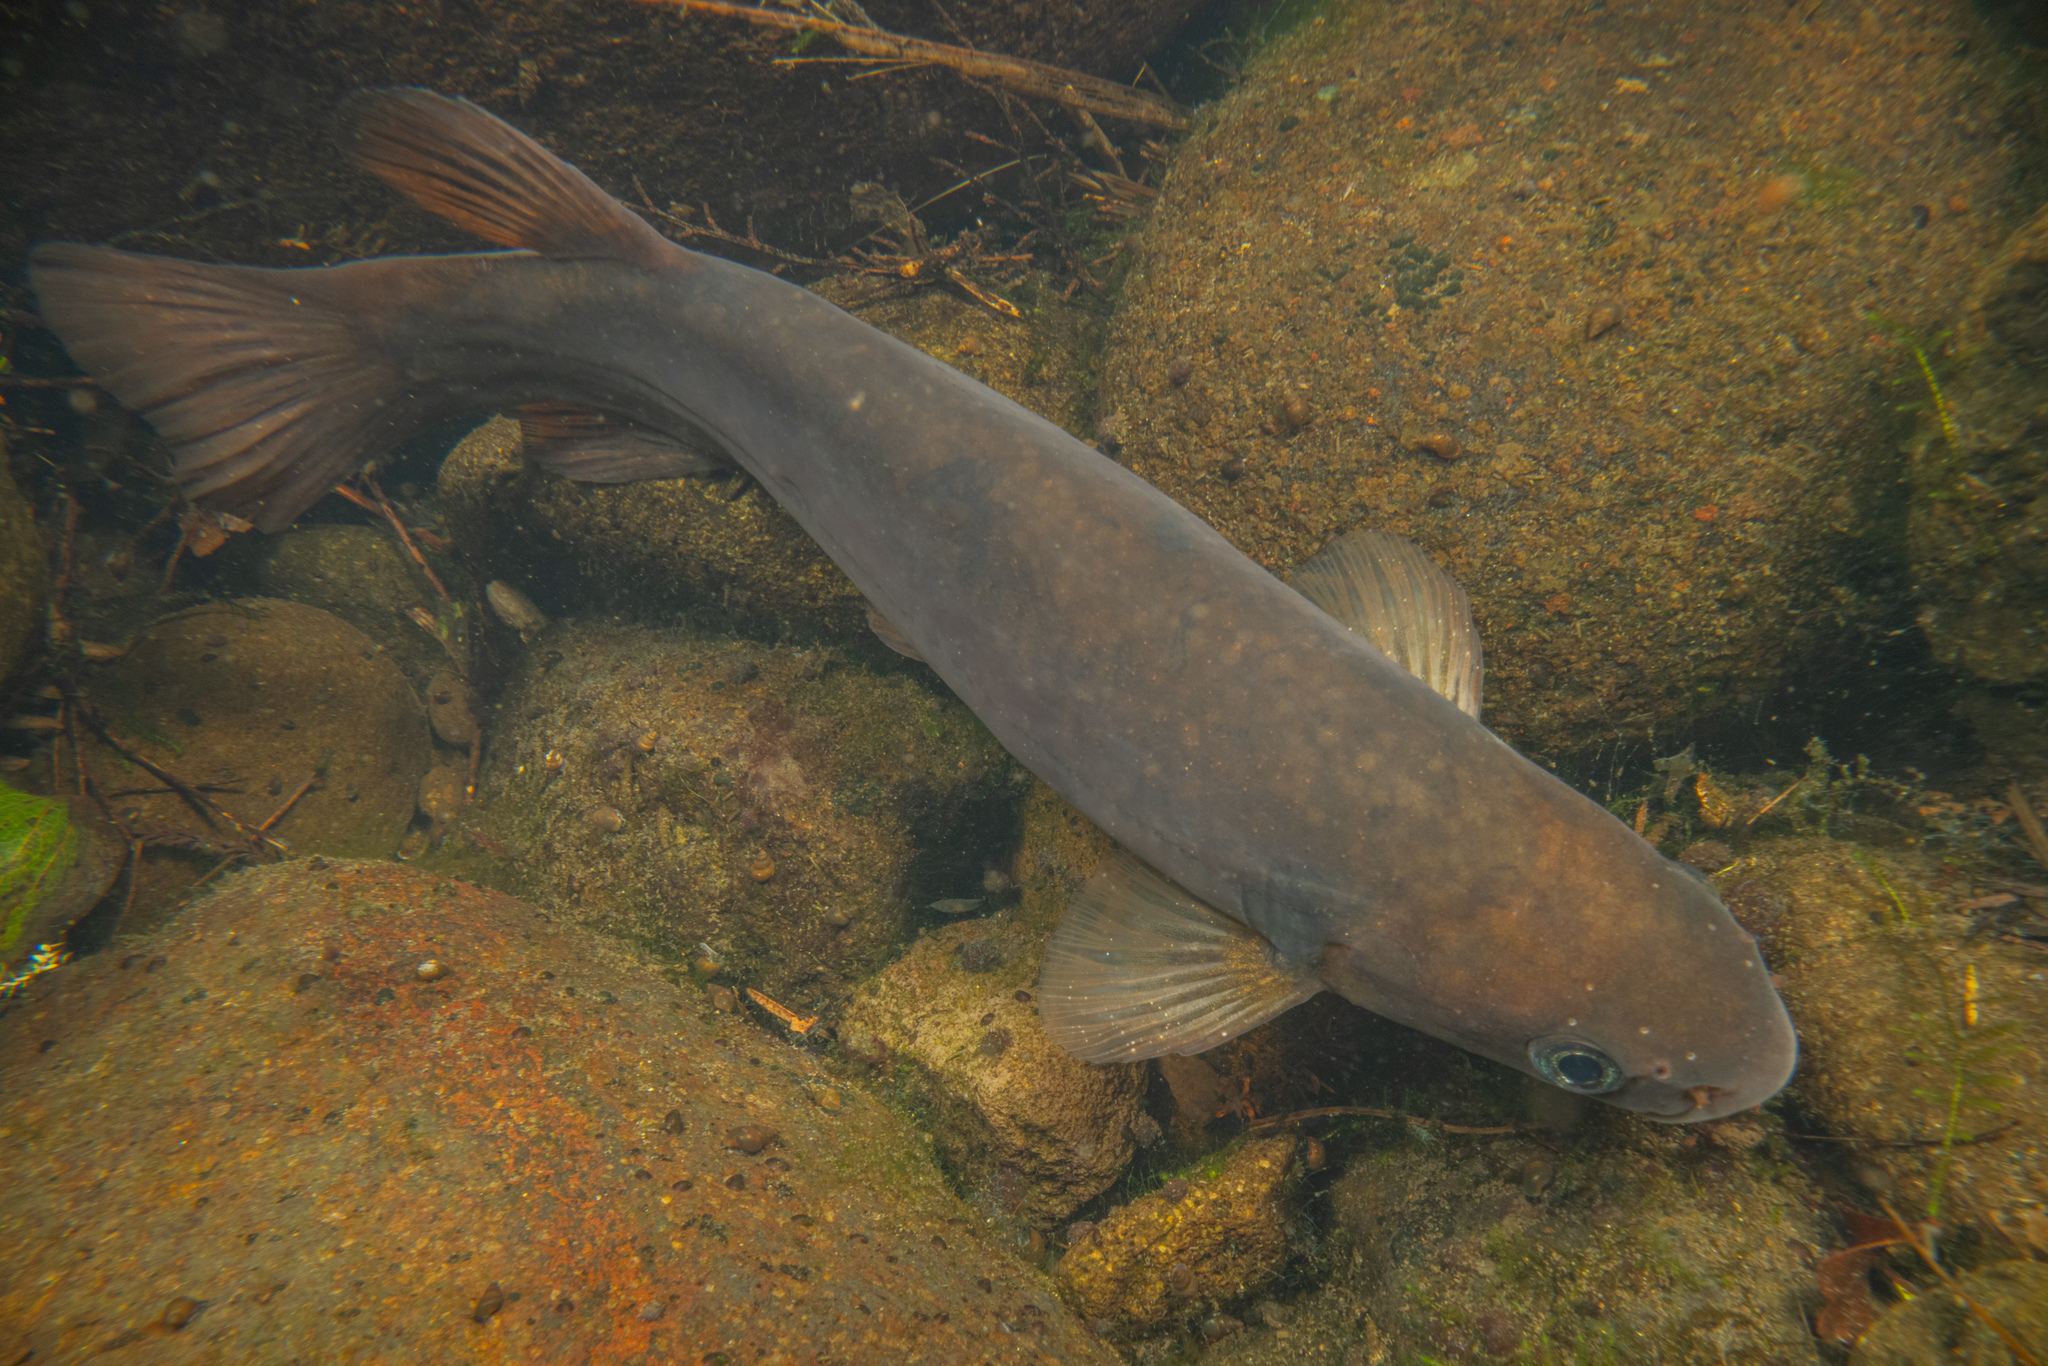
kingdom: Animalia
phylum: Chordata
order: Osmeriformes
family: Galaxiidae
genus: Galaxias
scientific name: Galaxias postvectis
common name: Shortjaw kokopu
